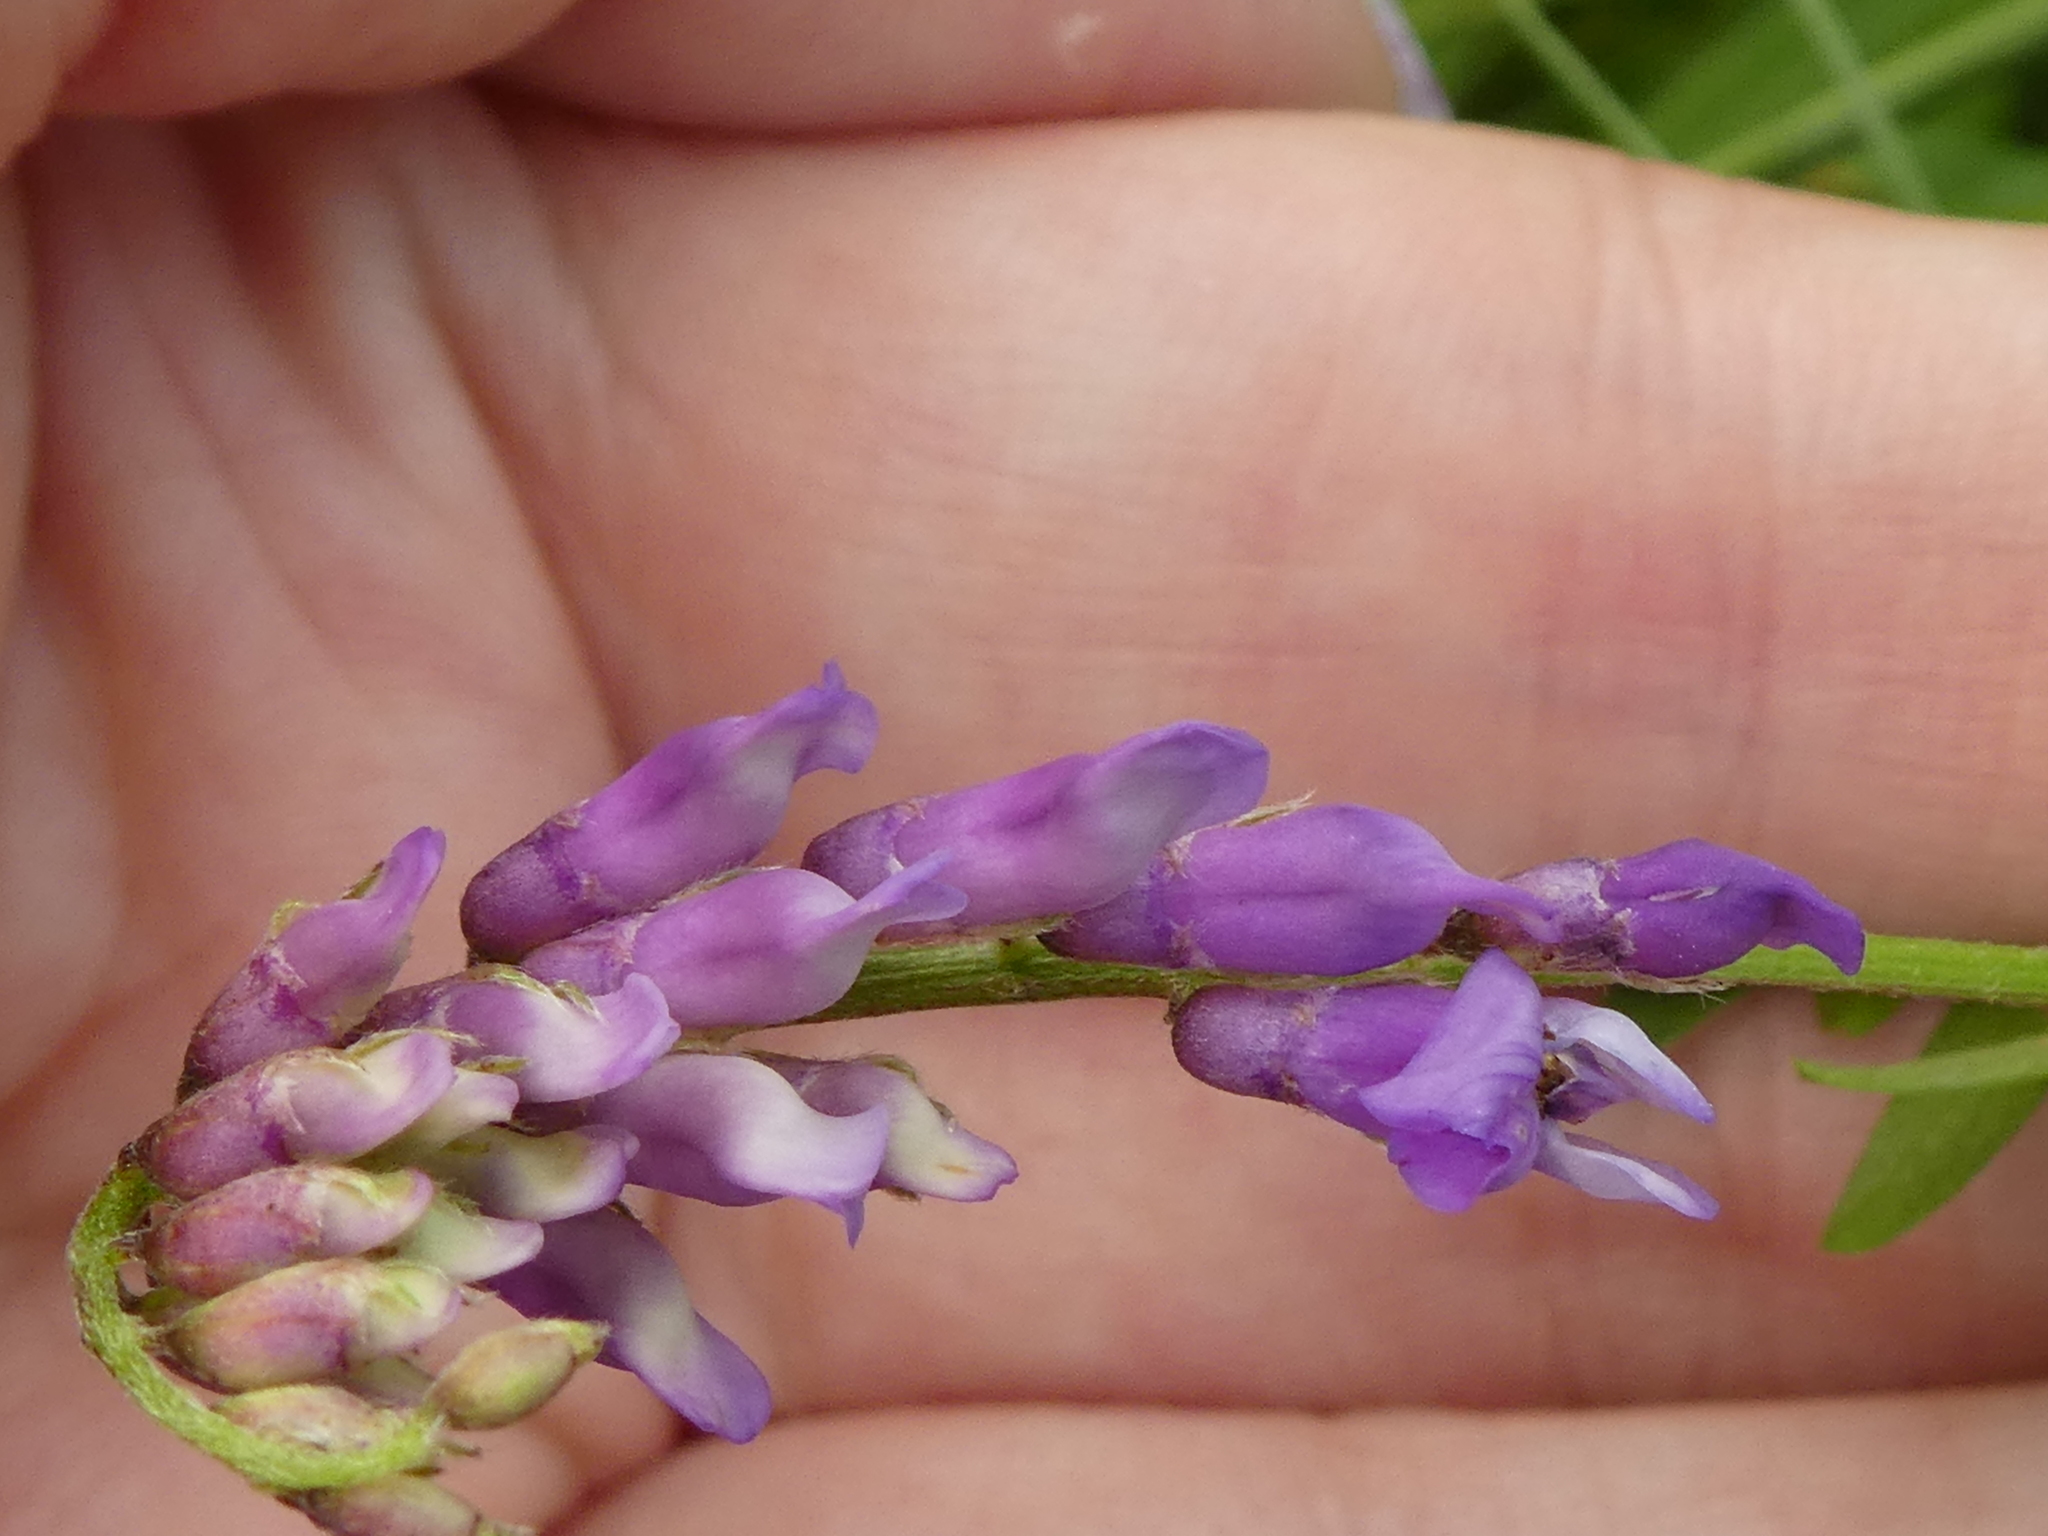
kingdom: Plantae
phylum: Tracheophyta
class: Magnoliopsida
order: Fabales
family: Fabaceae
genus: Vicia
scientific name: Vicia cracca
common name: Bird vetch
